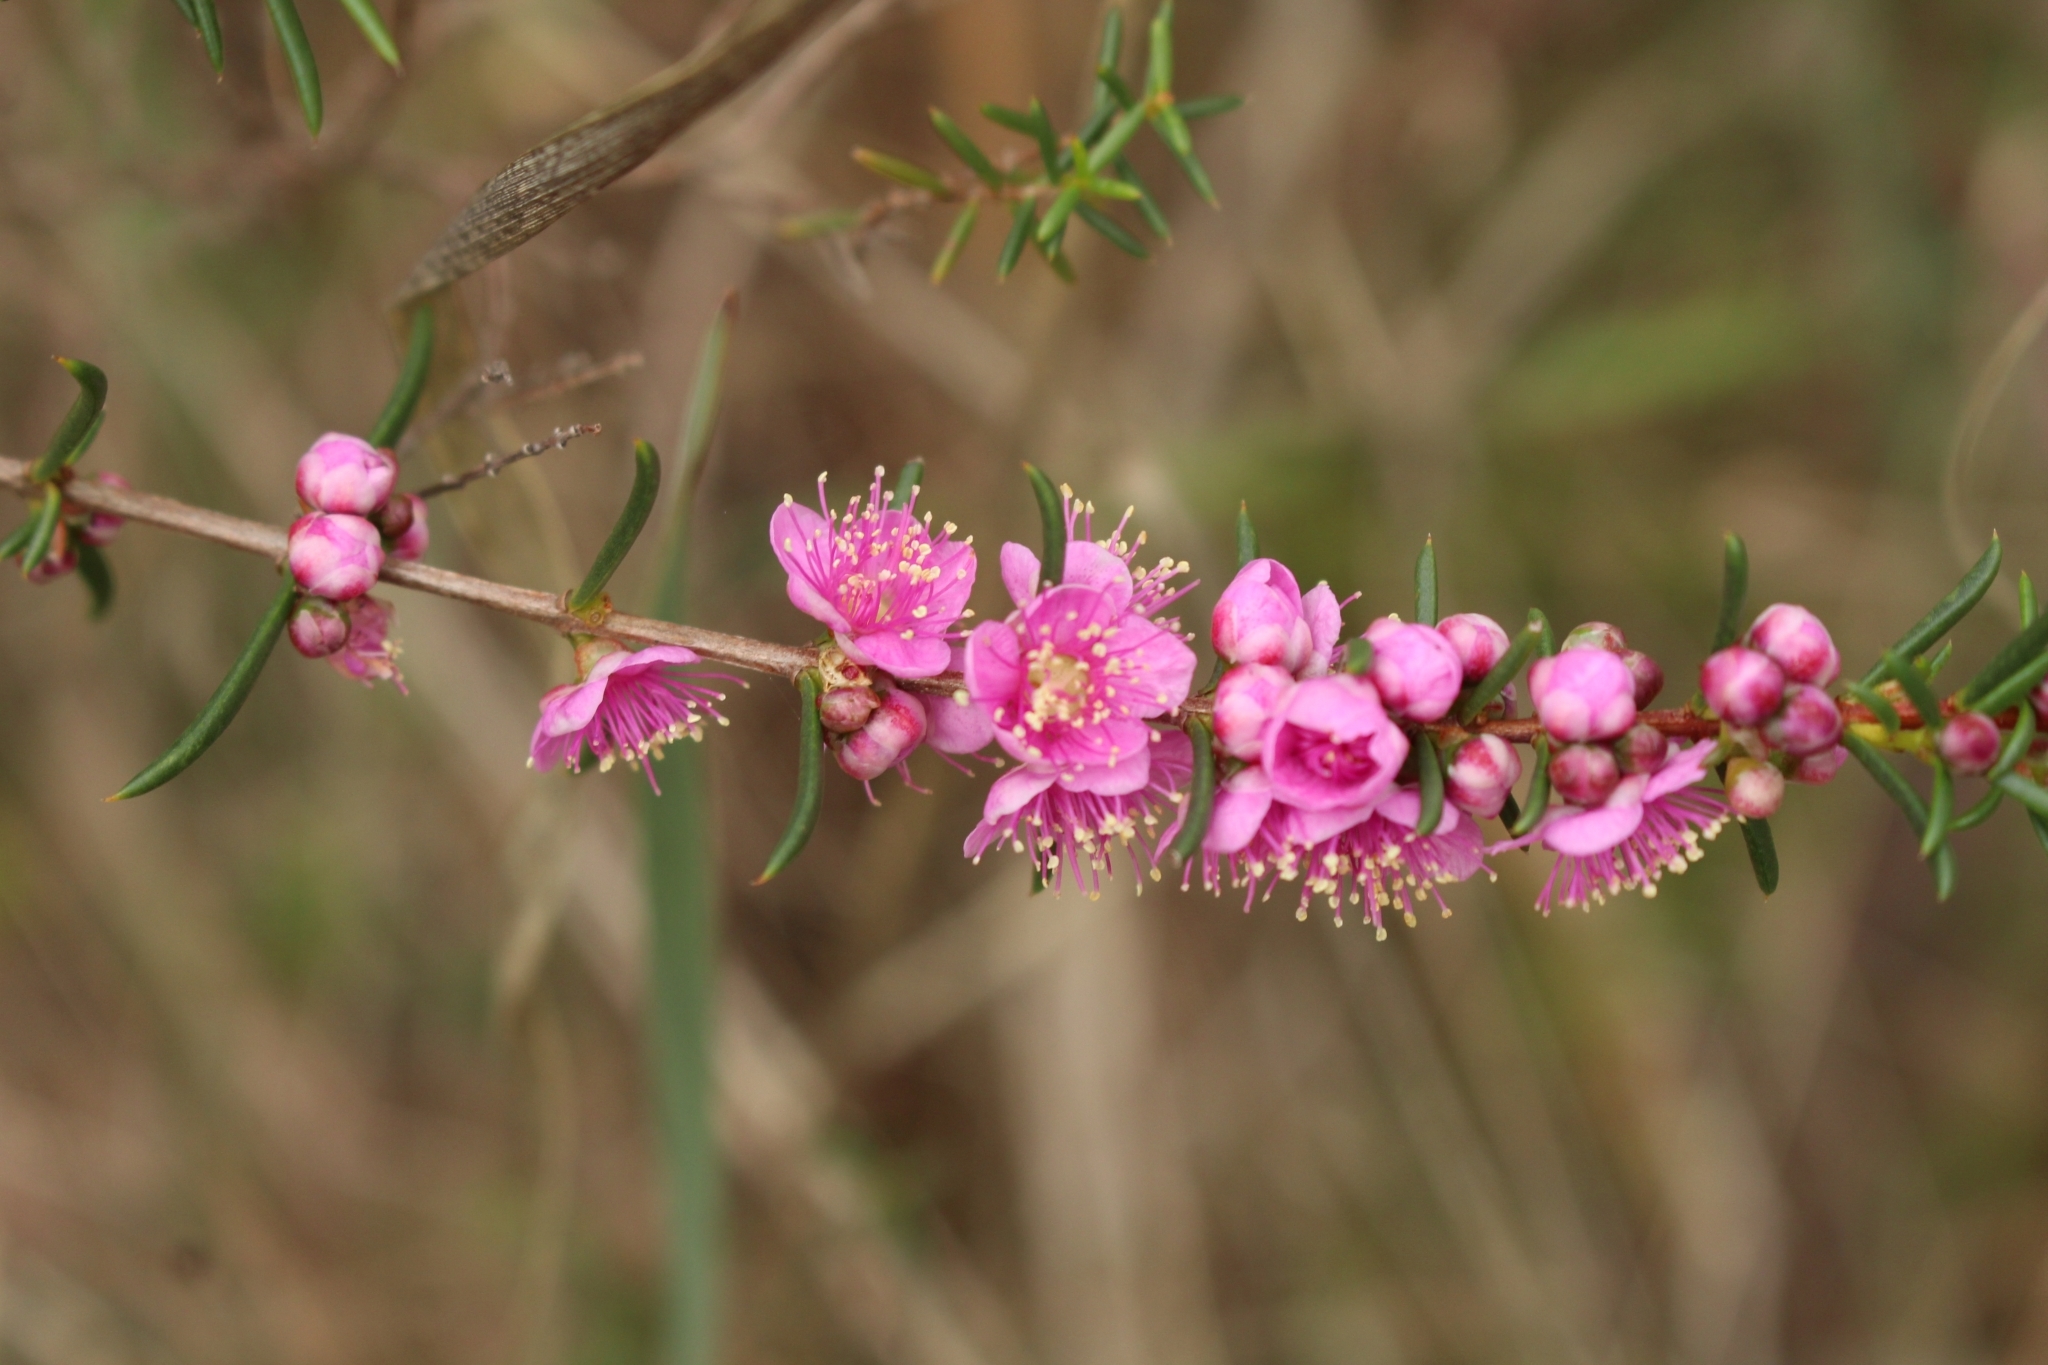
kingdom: Plantae
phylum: Tracheophyta
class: Magnoliopsida
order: Myrtales
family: Myrtaceae
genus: Hypocalymma
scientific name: Hypocalymma robustum
